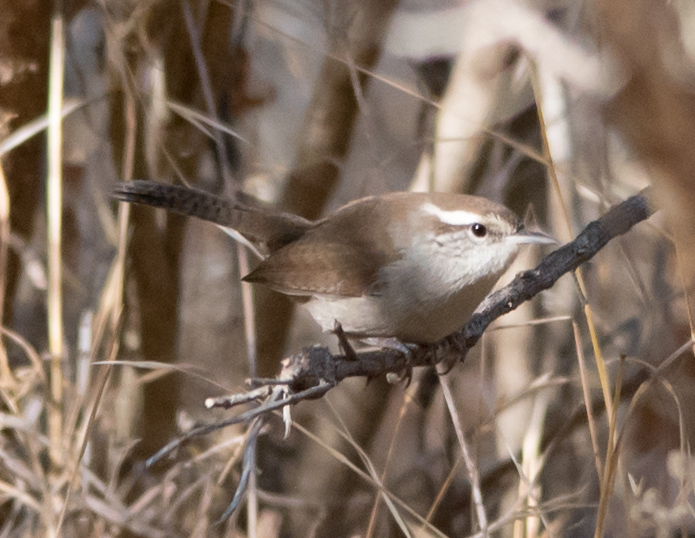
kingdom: Animalia
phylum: Chordata
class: Aves
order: Passeriformes
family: Troglodytidae
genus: Thryomanes
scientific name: Thryomanes bewickii
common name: Bewick's wren
